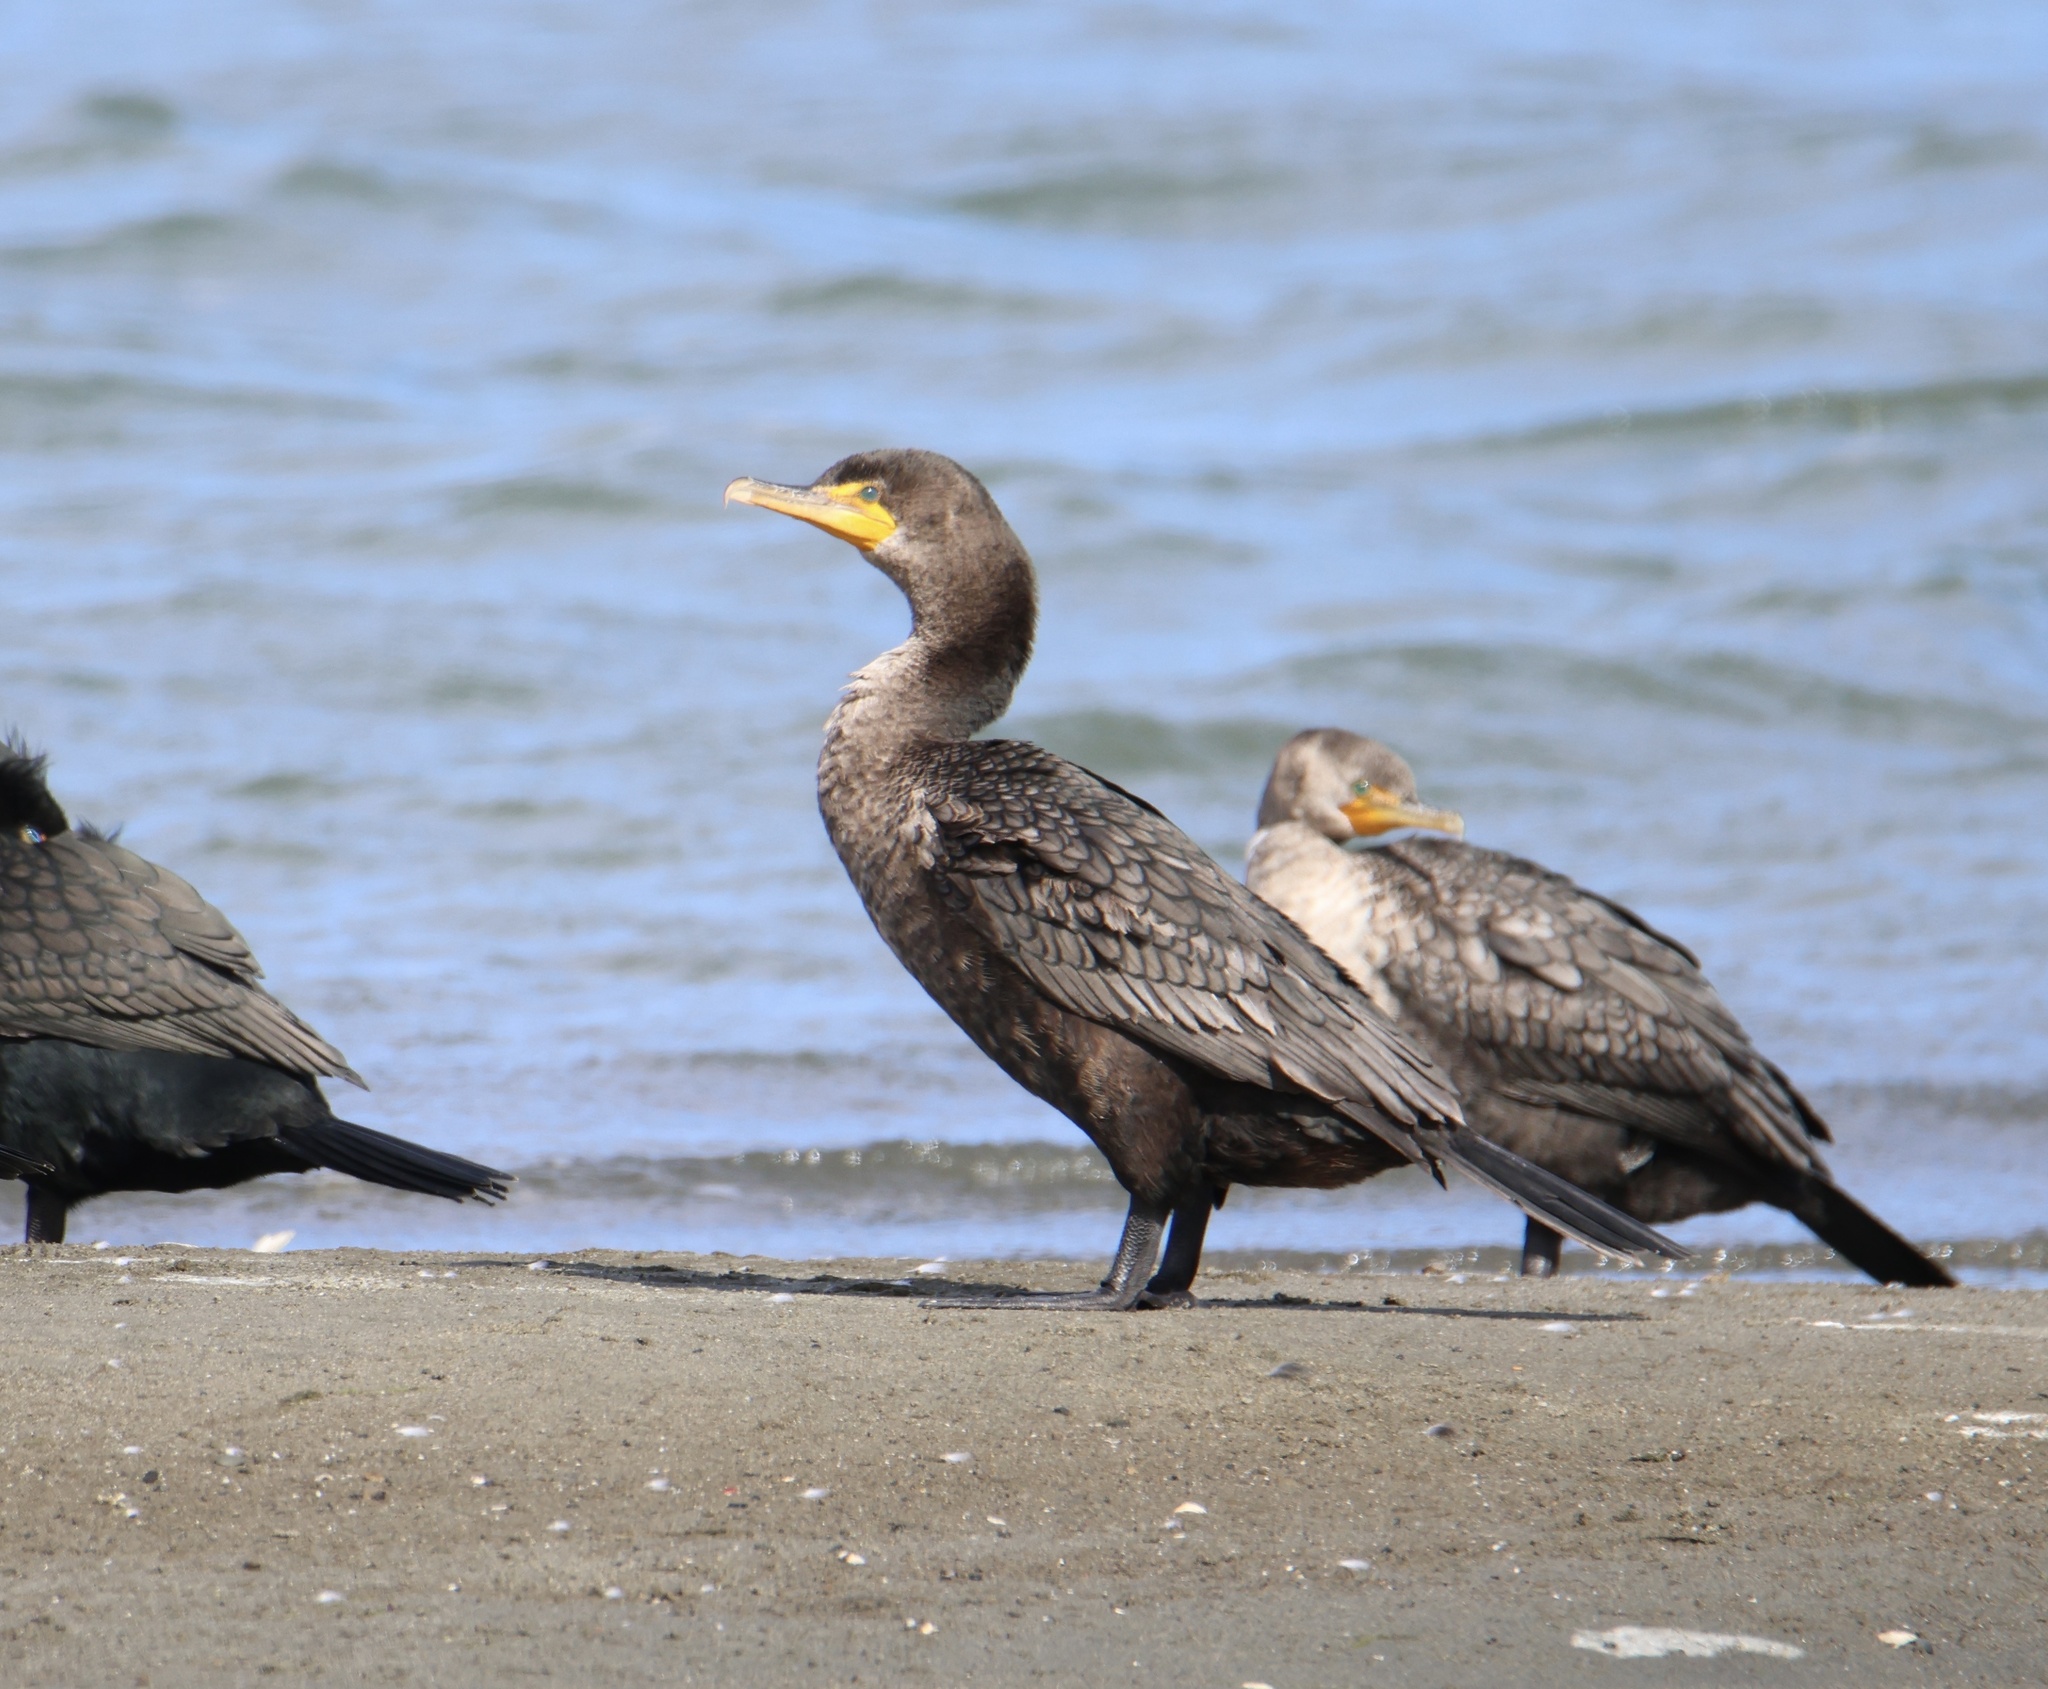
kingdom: Animalia
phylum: Chordata
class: Aves
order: Suliformes
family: Phalacrocoracidae
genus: Phalacrocorax
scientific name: Phalacrocorax auritus
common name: Double-crested cormorant
